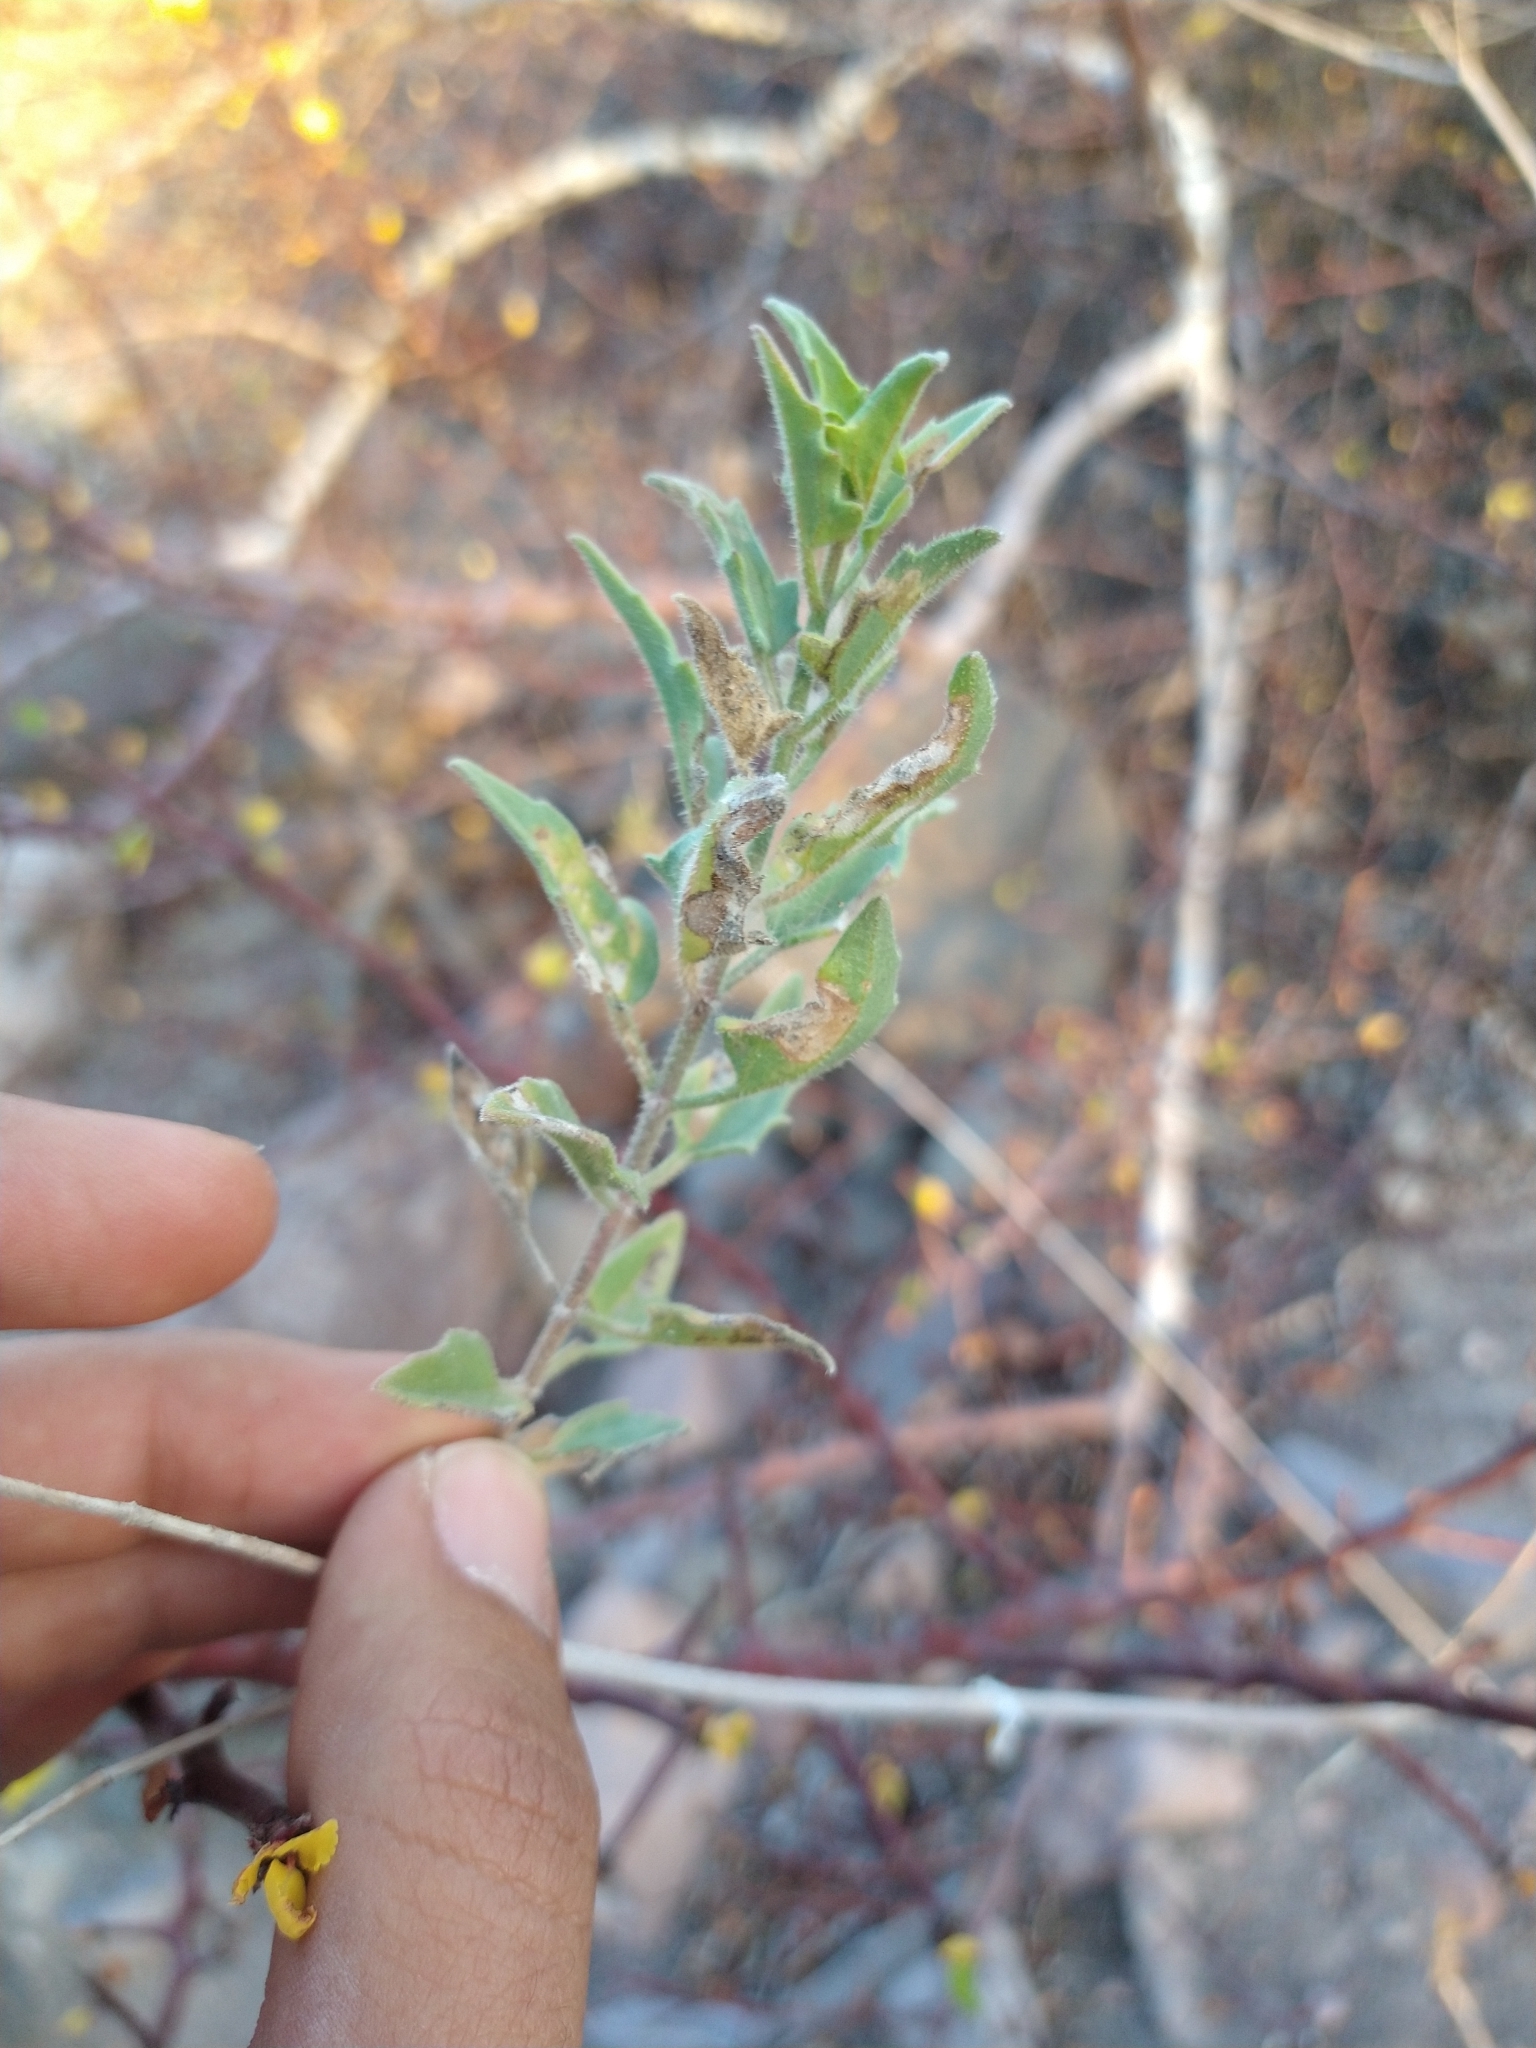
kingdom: Plantae
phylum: Tracheophyta
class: Magnoliopsida
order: Asterales
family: Asteraceae
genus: Bebbia
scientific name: Bebbia atriplicifolia
